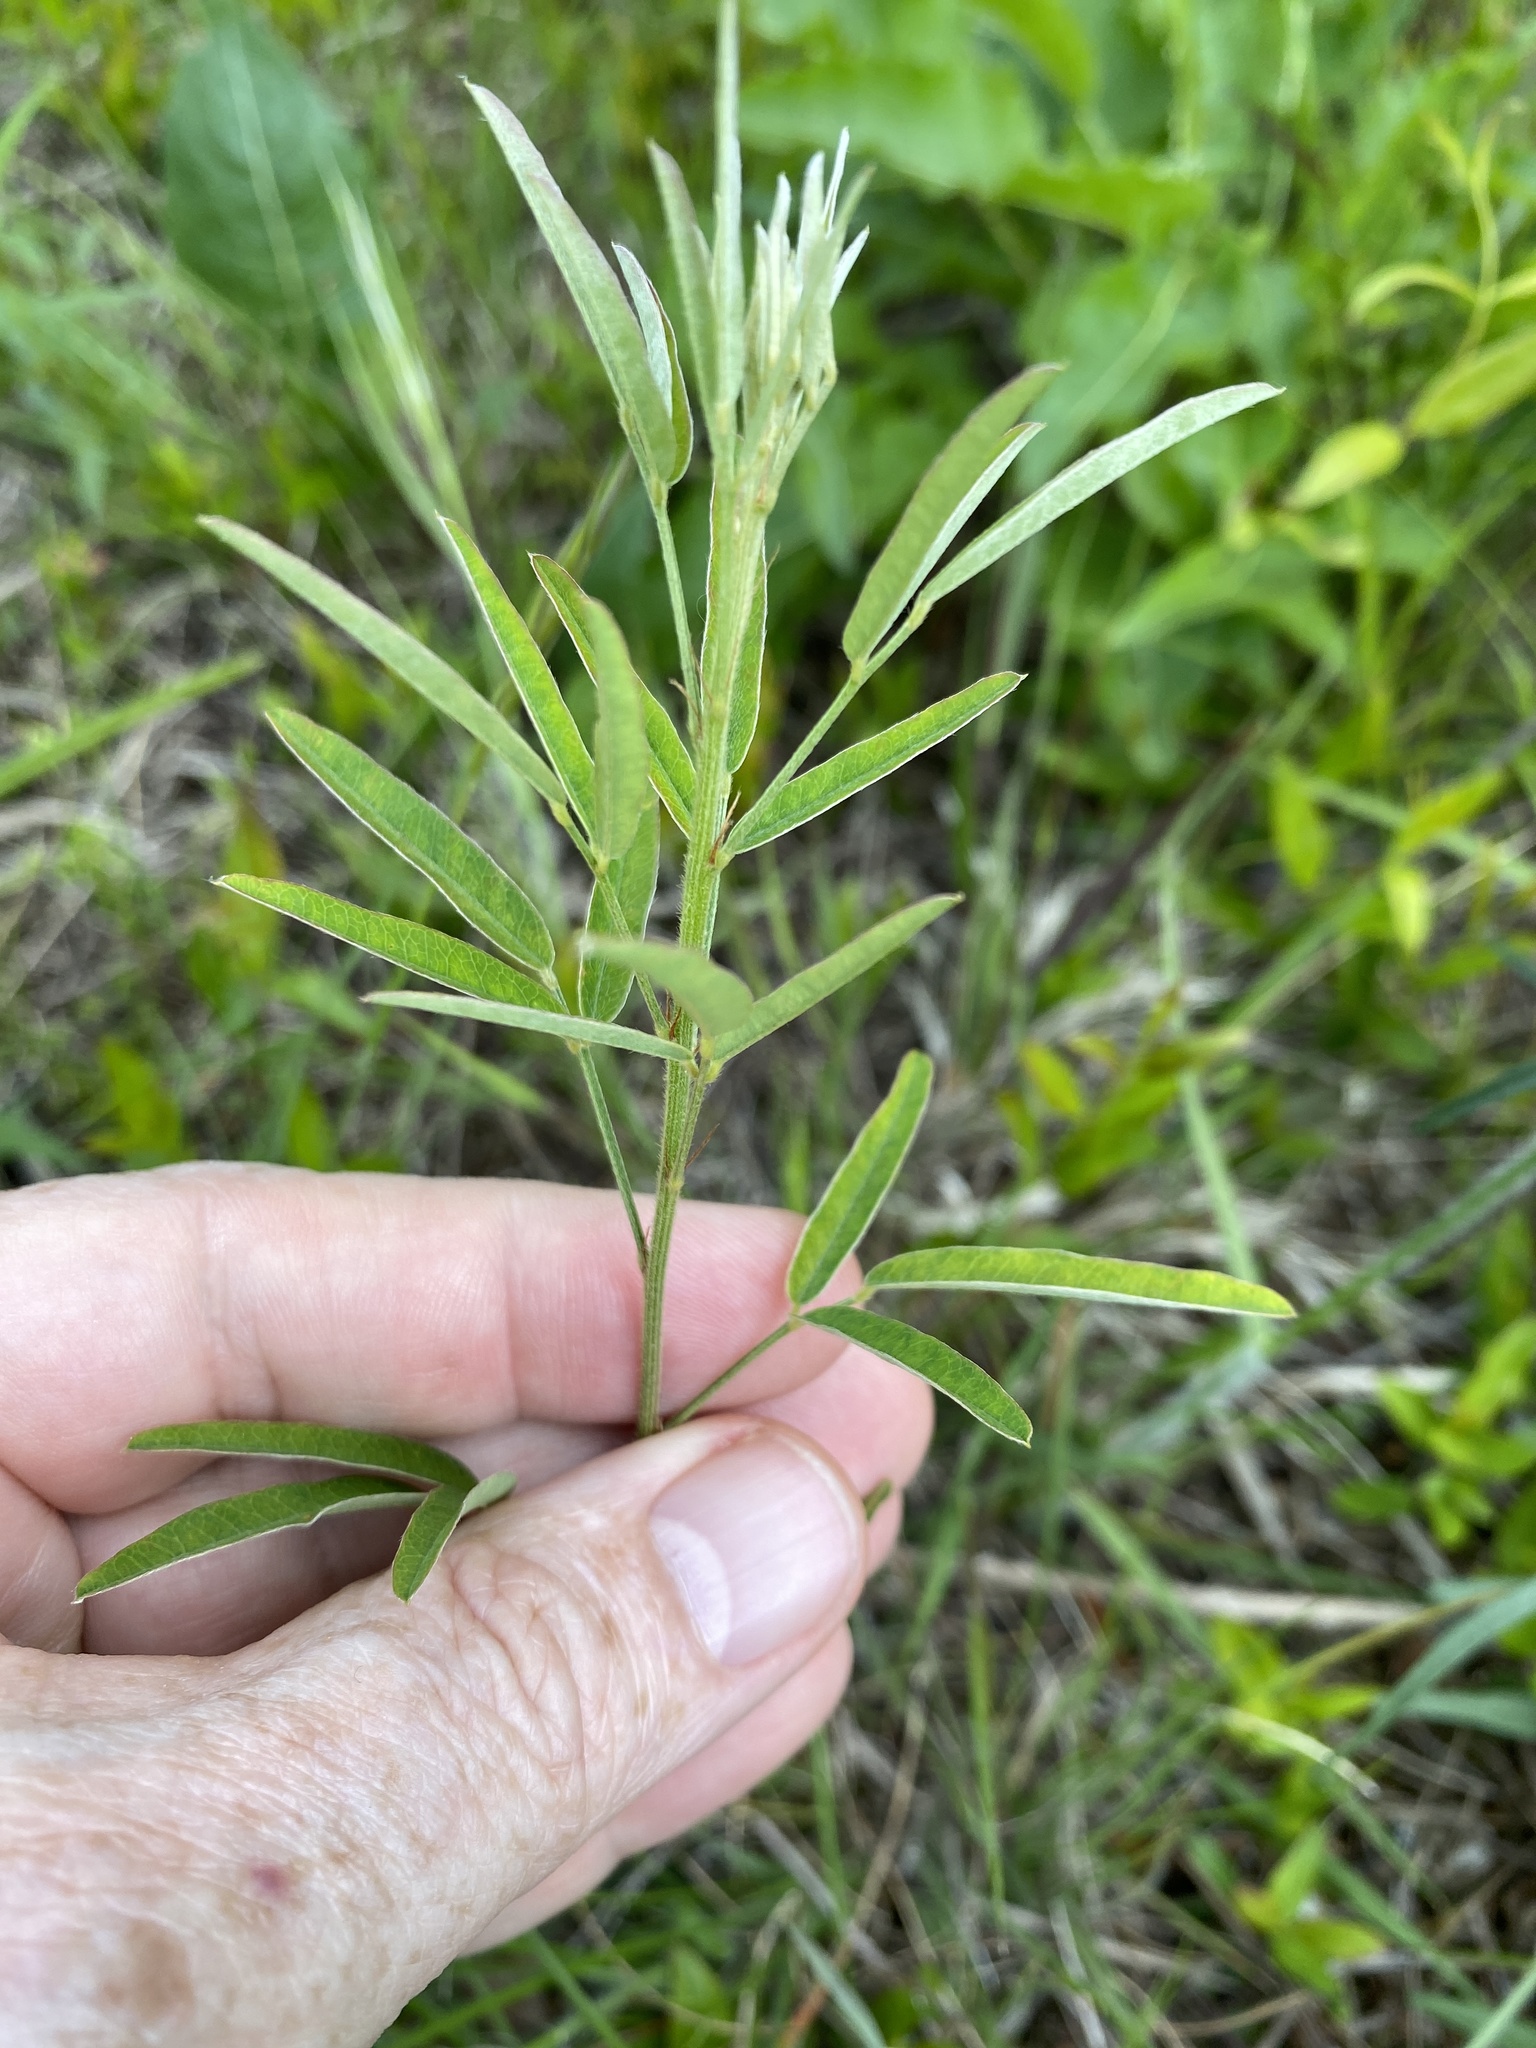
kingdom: Plantae
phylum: Tracheophyta
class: Magnoliopsida
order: Fabales
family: Fabaceae
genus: Lespedeza
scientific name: Lespedeza virginica
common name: Slender bush-clover
